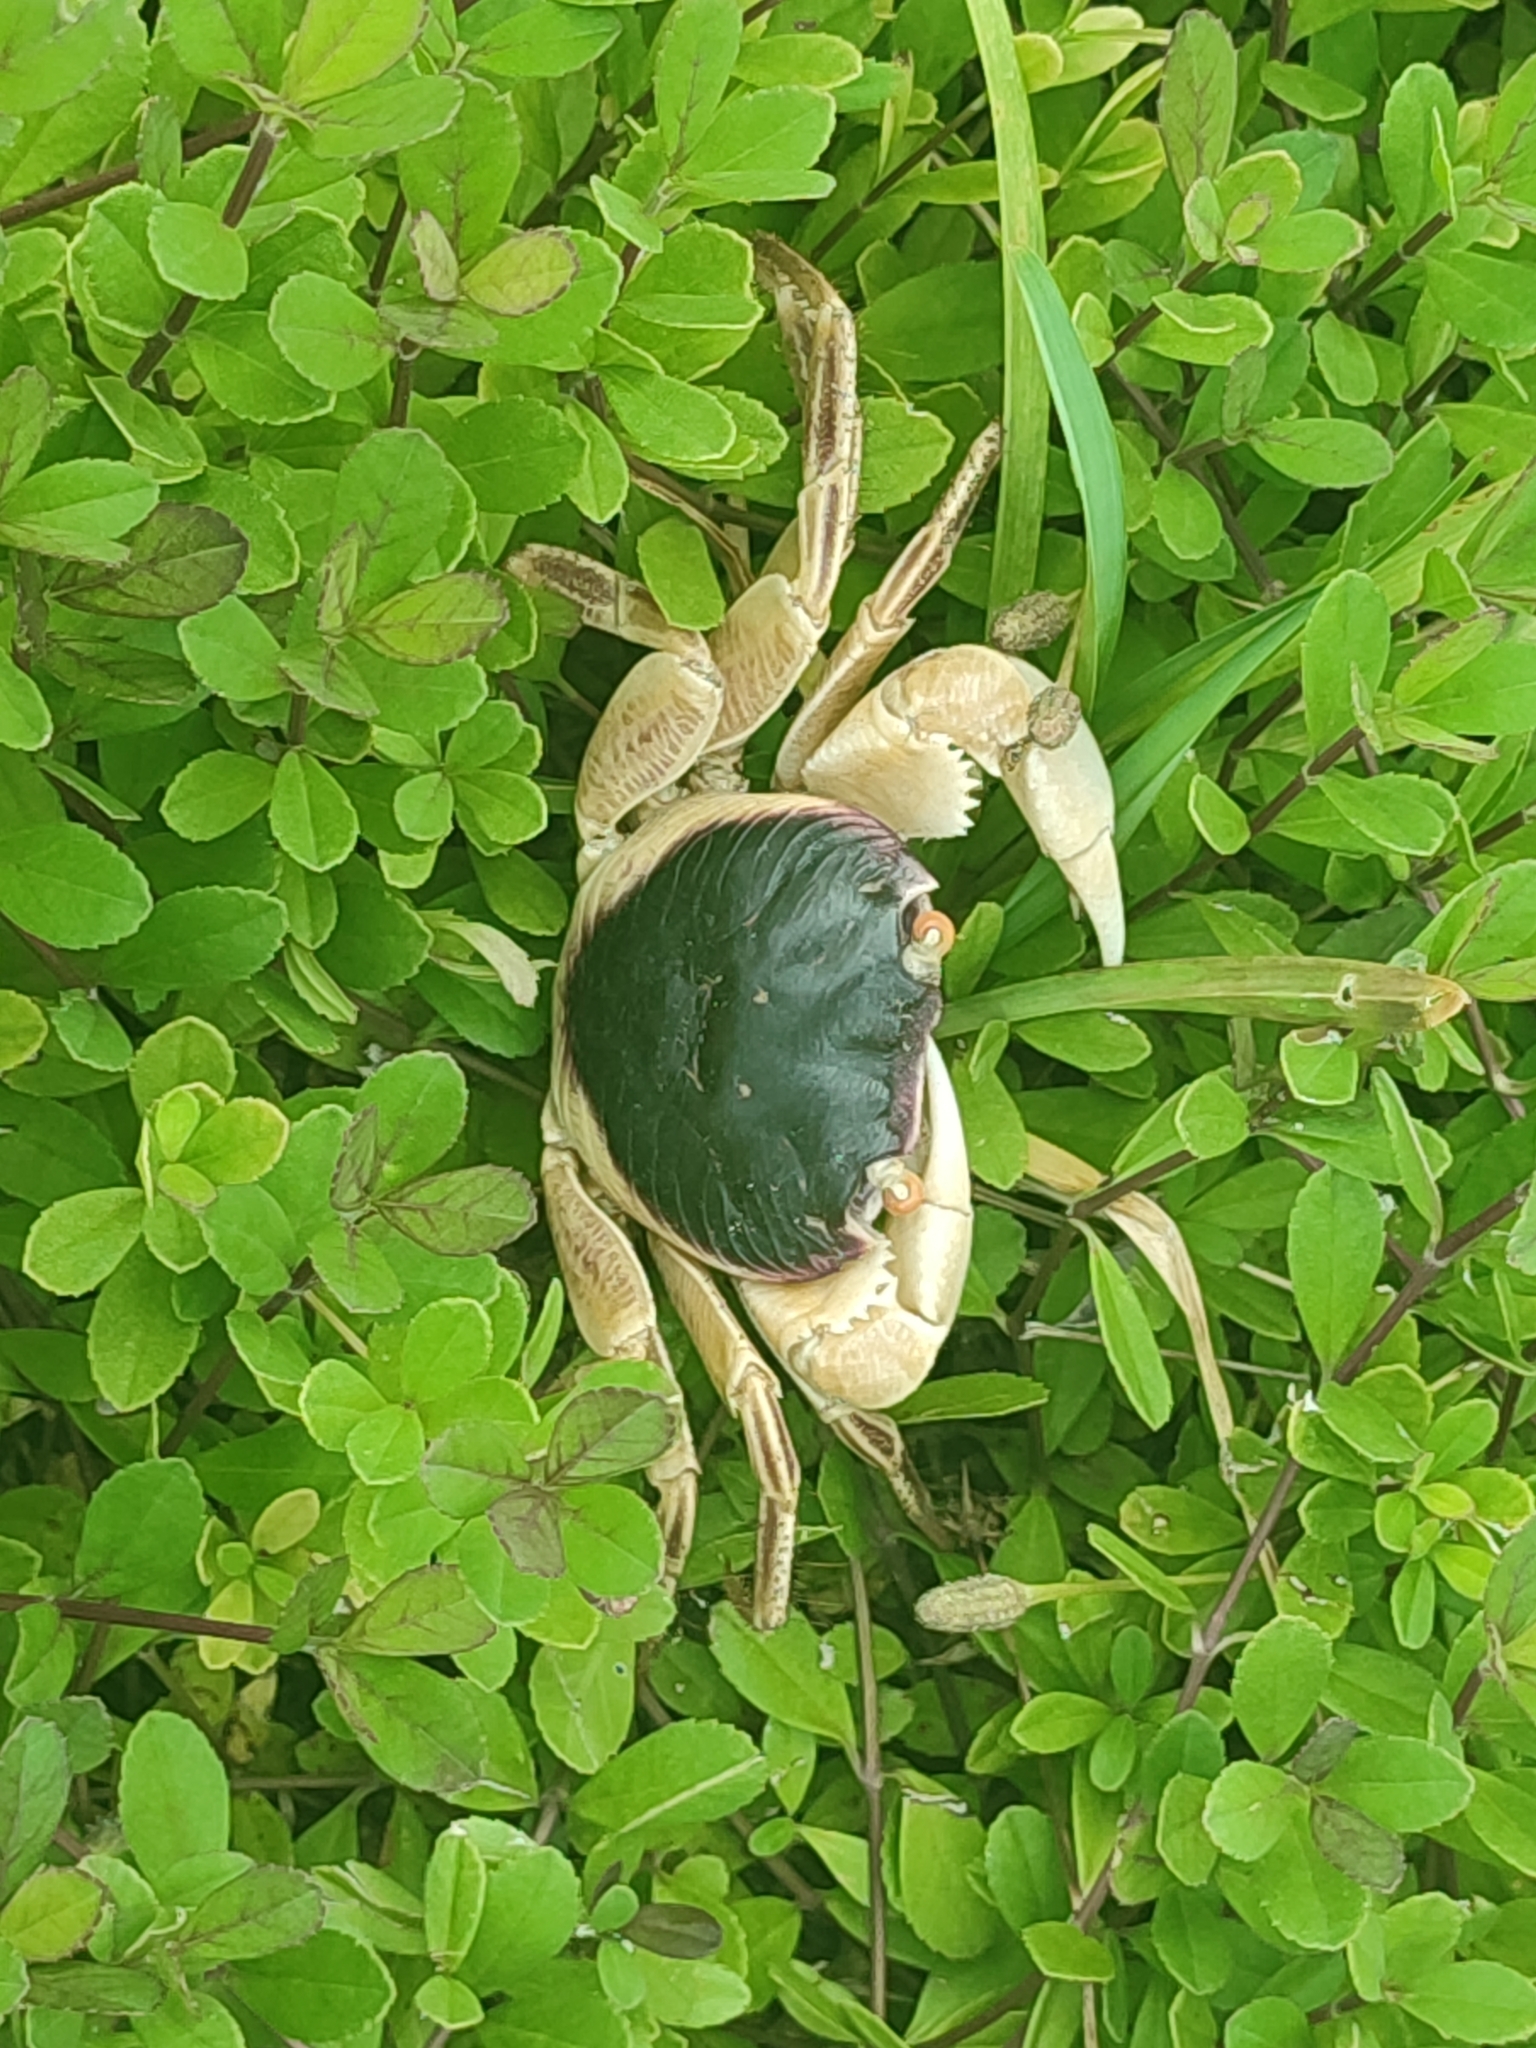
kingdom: Animalia
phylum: Arthropoda
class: Malacostraca
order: Decapoda
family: Grapsidae
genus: Geograpsus
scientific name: Geograpsus grayi
